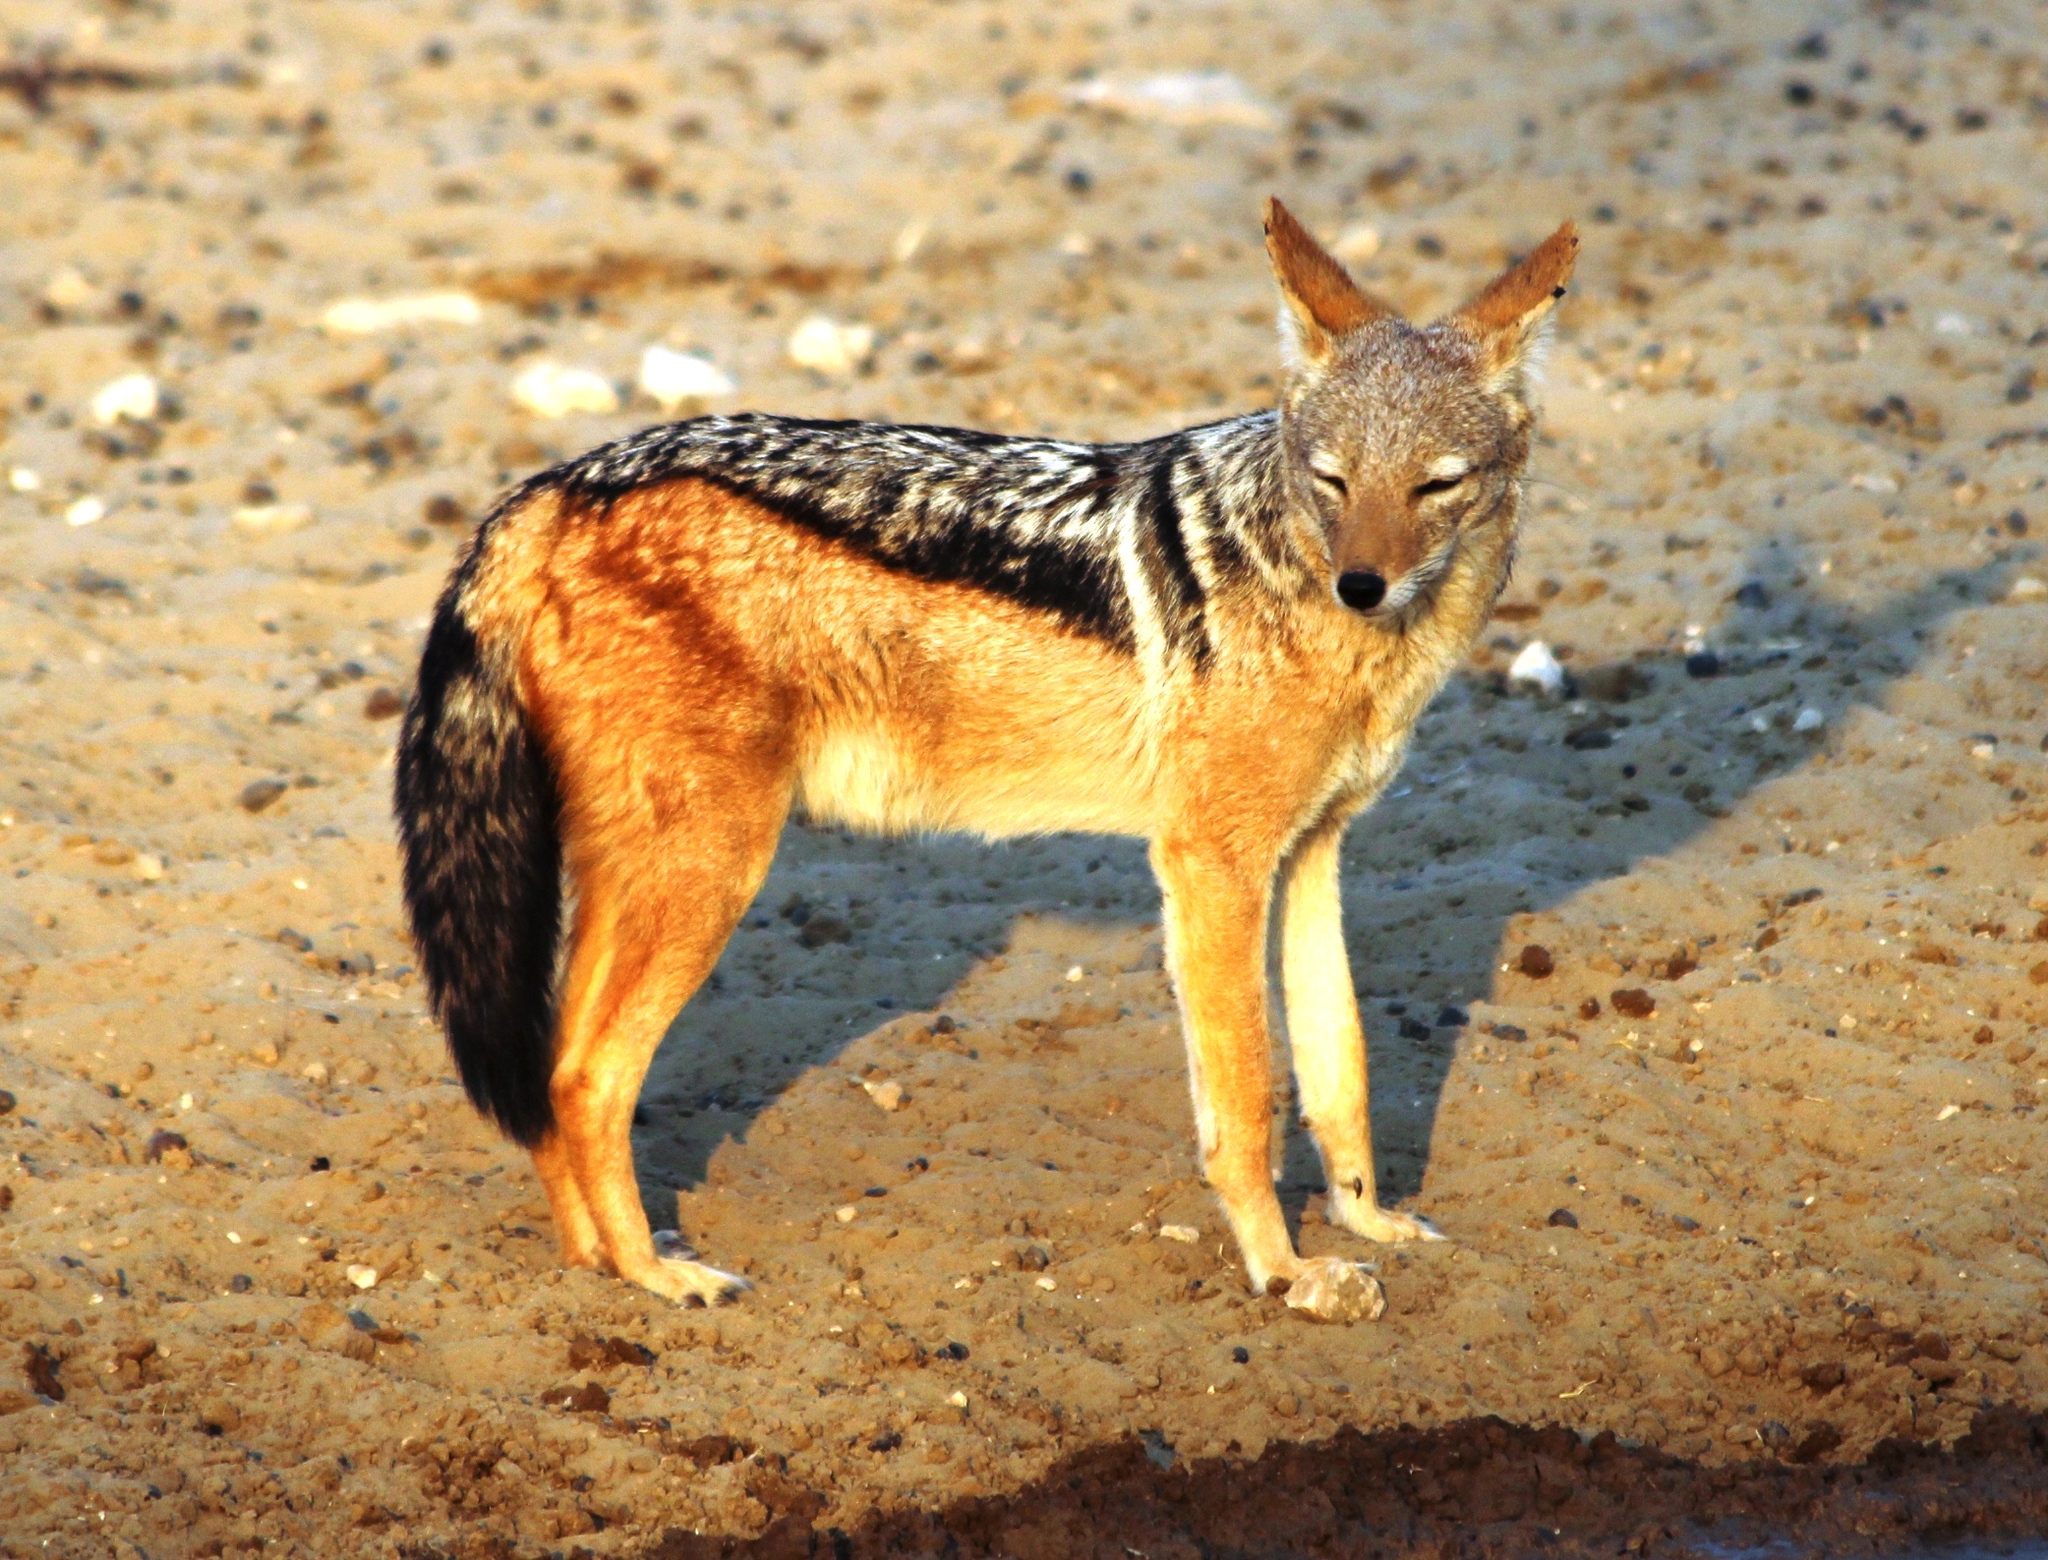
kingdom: Animalia
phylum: Chordata
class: Mammalia
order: Carnivora
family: Canidae
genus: Lupulella
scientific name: Lupulella
